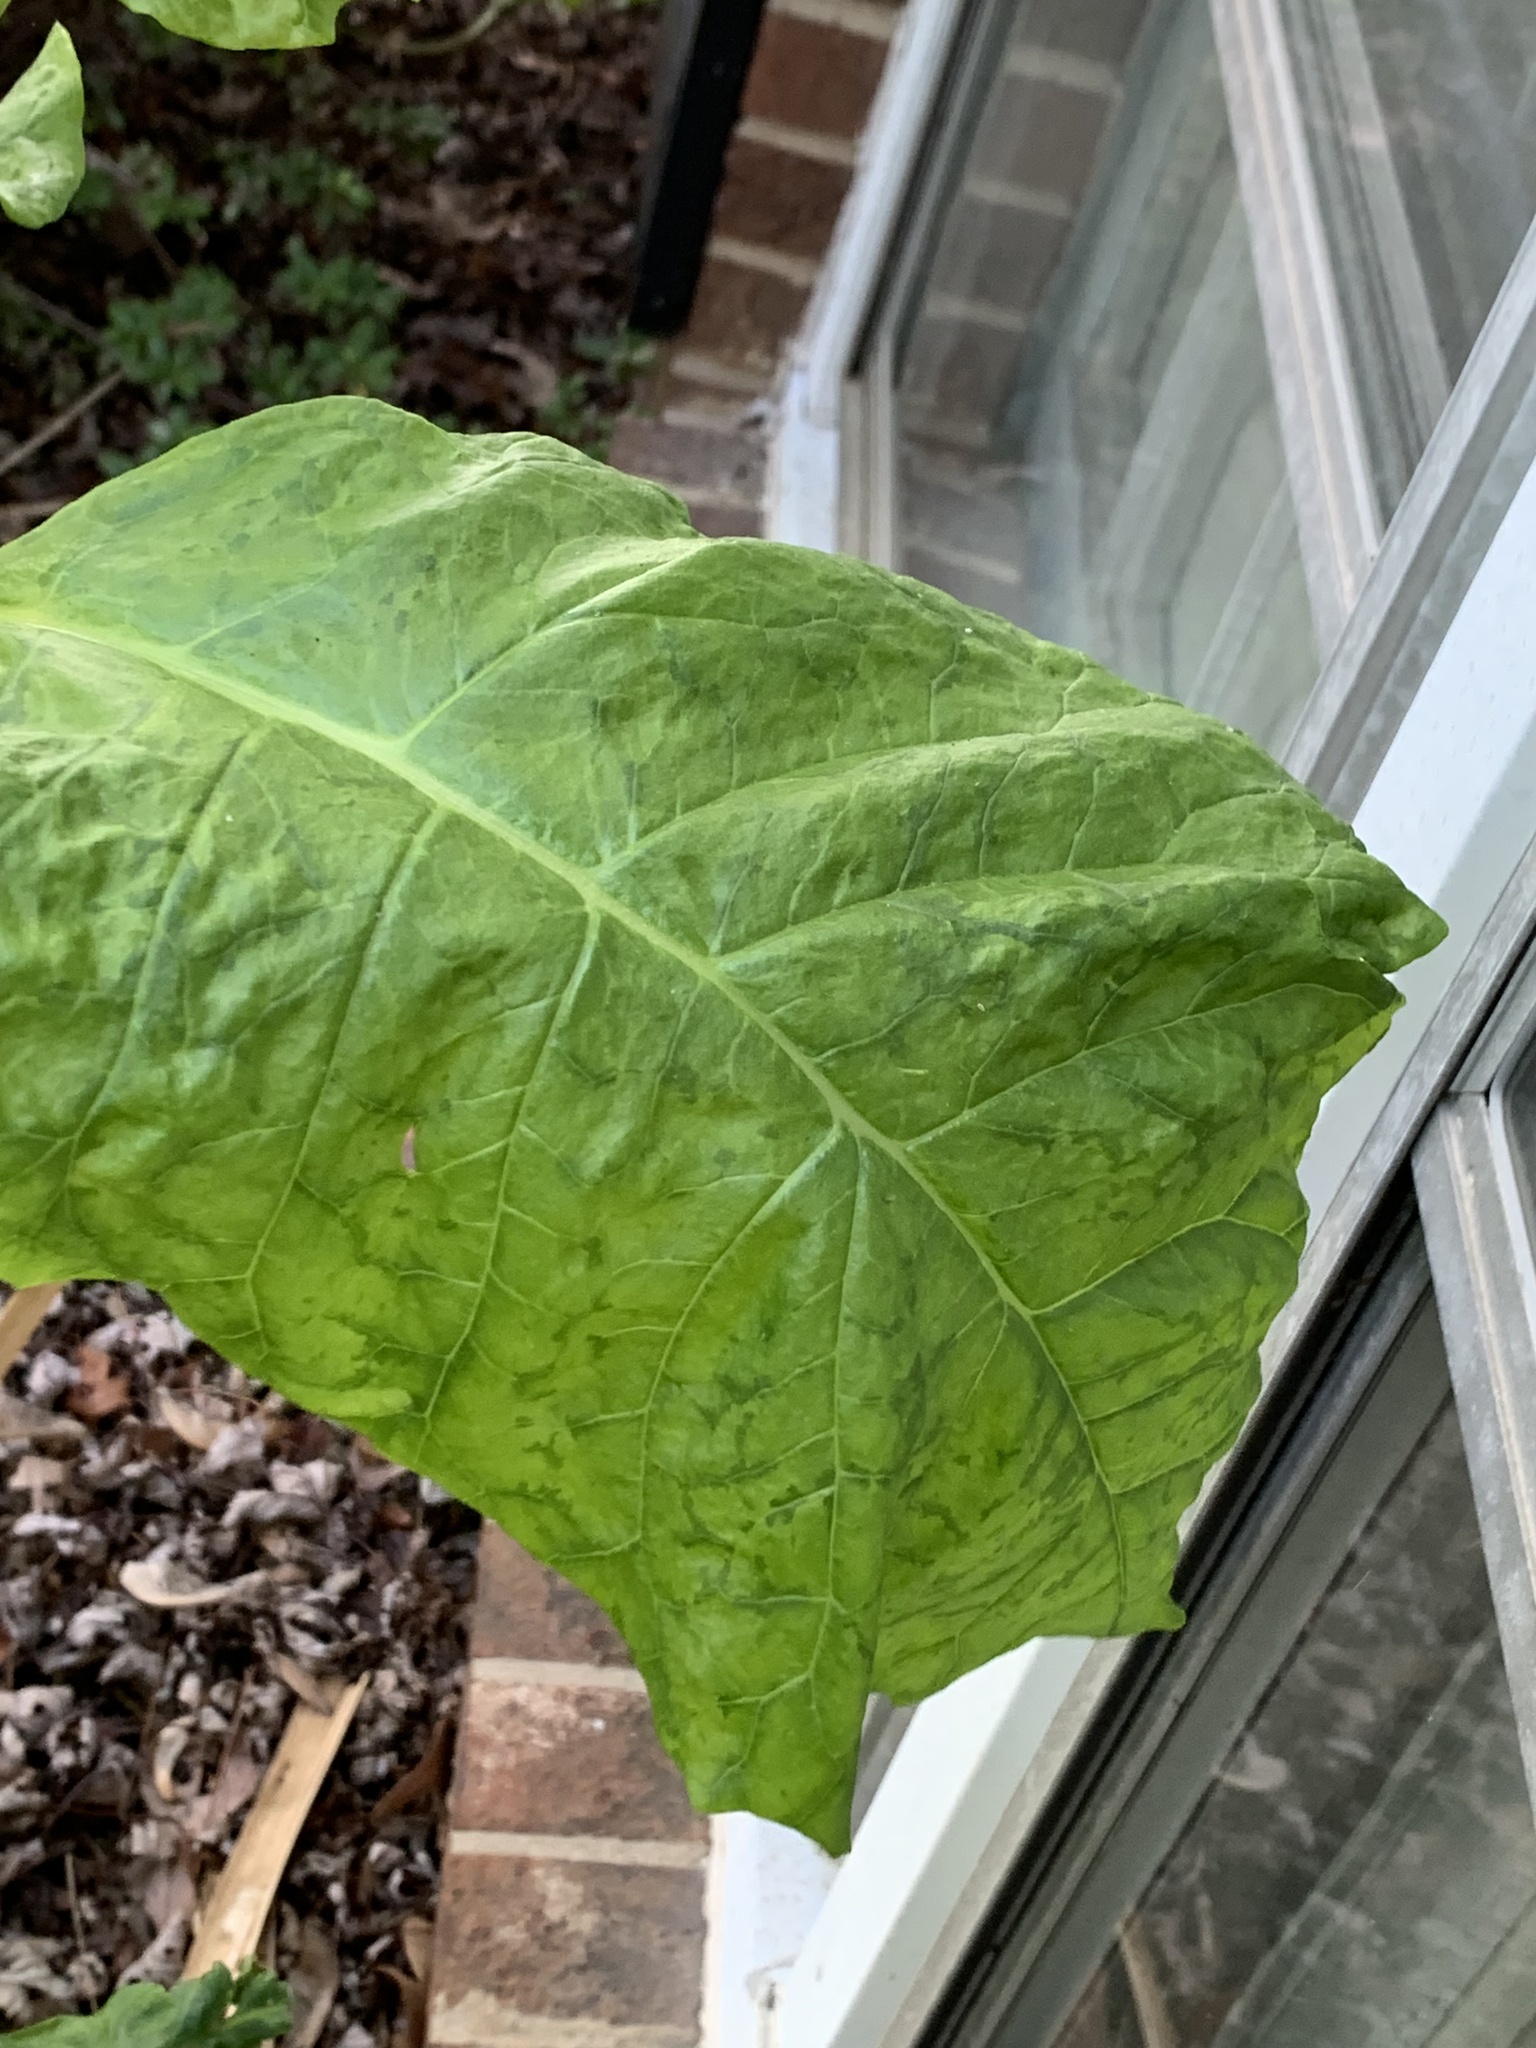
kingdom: Viruses
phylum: Pisuviricota
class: Stelpaviricetes
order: Patatavirales
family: Potyviridae
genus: Potyvirus
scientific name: Potyvirus Pokeweed mosaic virus
